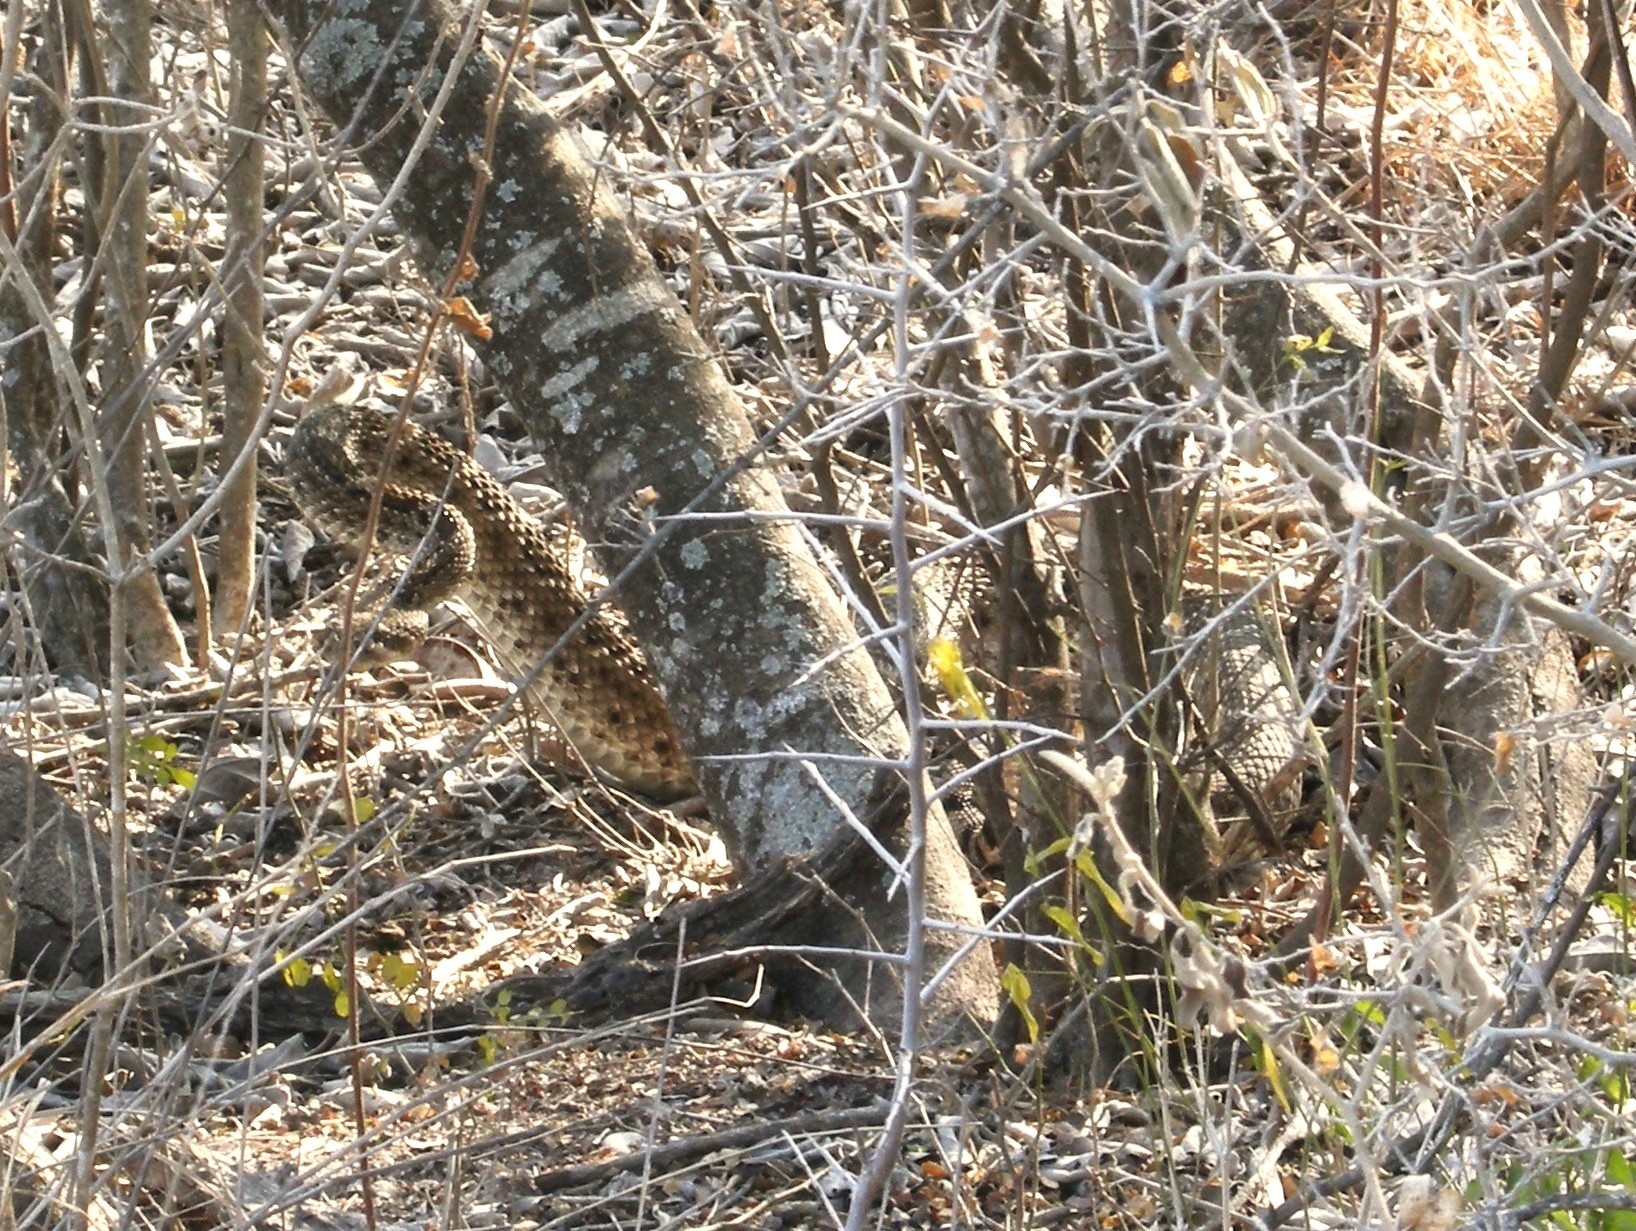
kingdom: Animalia
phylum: Chordata
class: Squamata
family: Viperidae
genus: Crotalus
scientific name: Crotalus atrox
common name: Western diamond-backed rattlesnake
